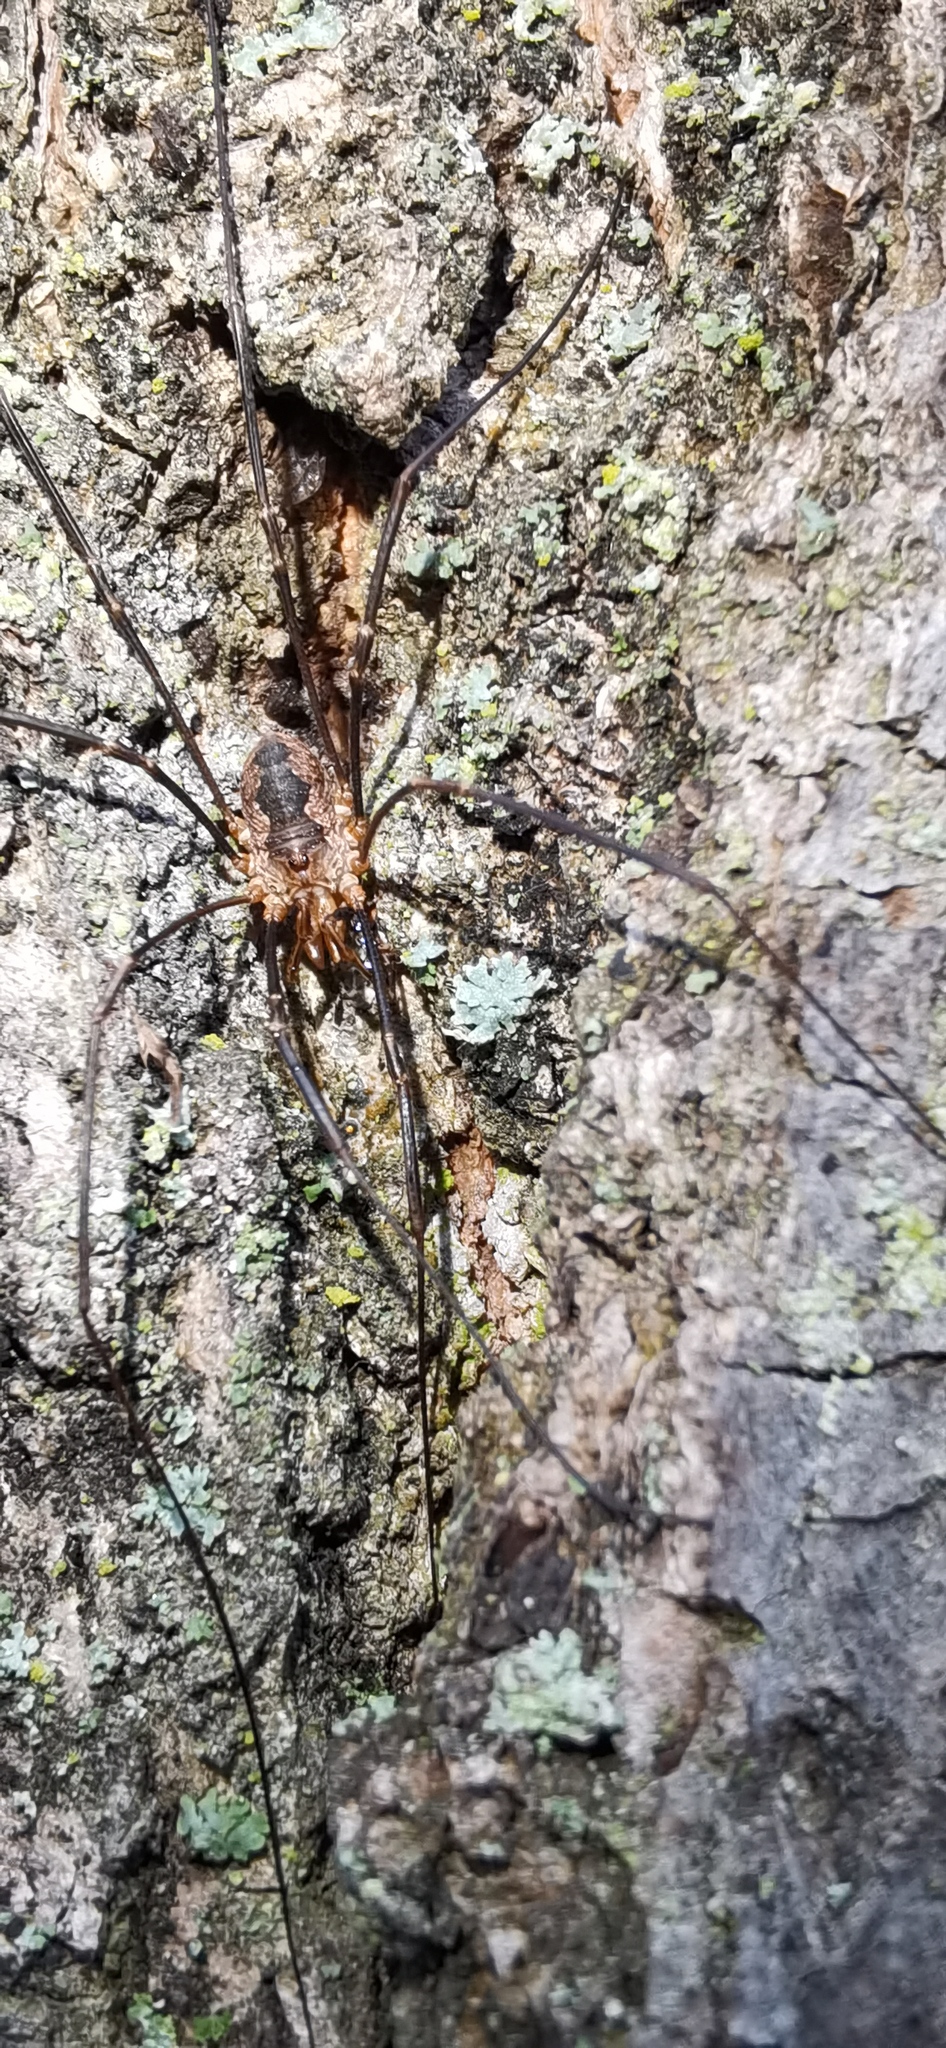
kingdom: Animalia
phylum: Arthropoda
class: Arachnida
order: Opiliones
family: Phalangiidae
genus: Phalangium
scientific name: Phalangium opilio
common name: Daddy longleg
